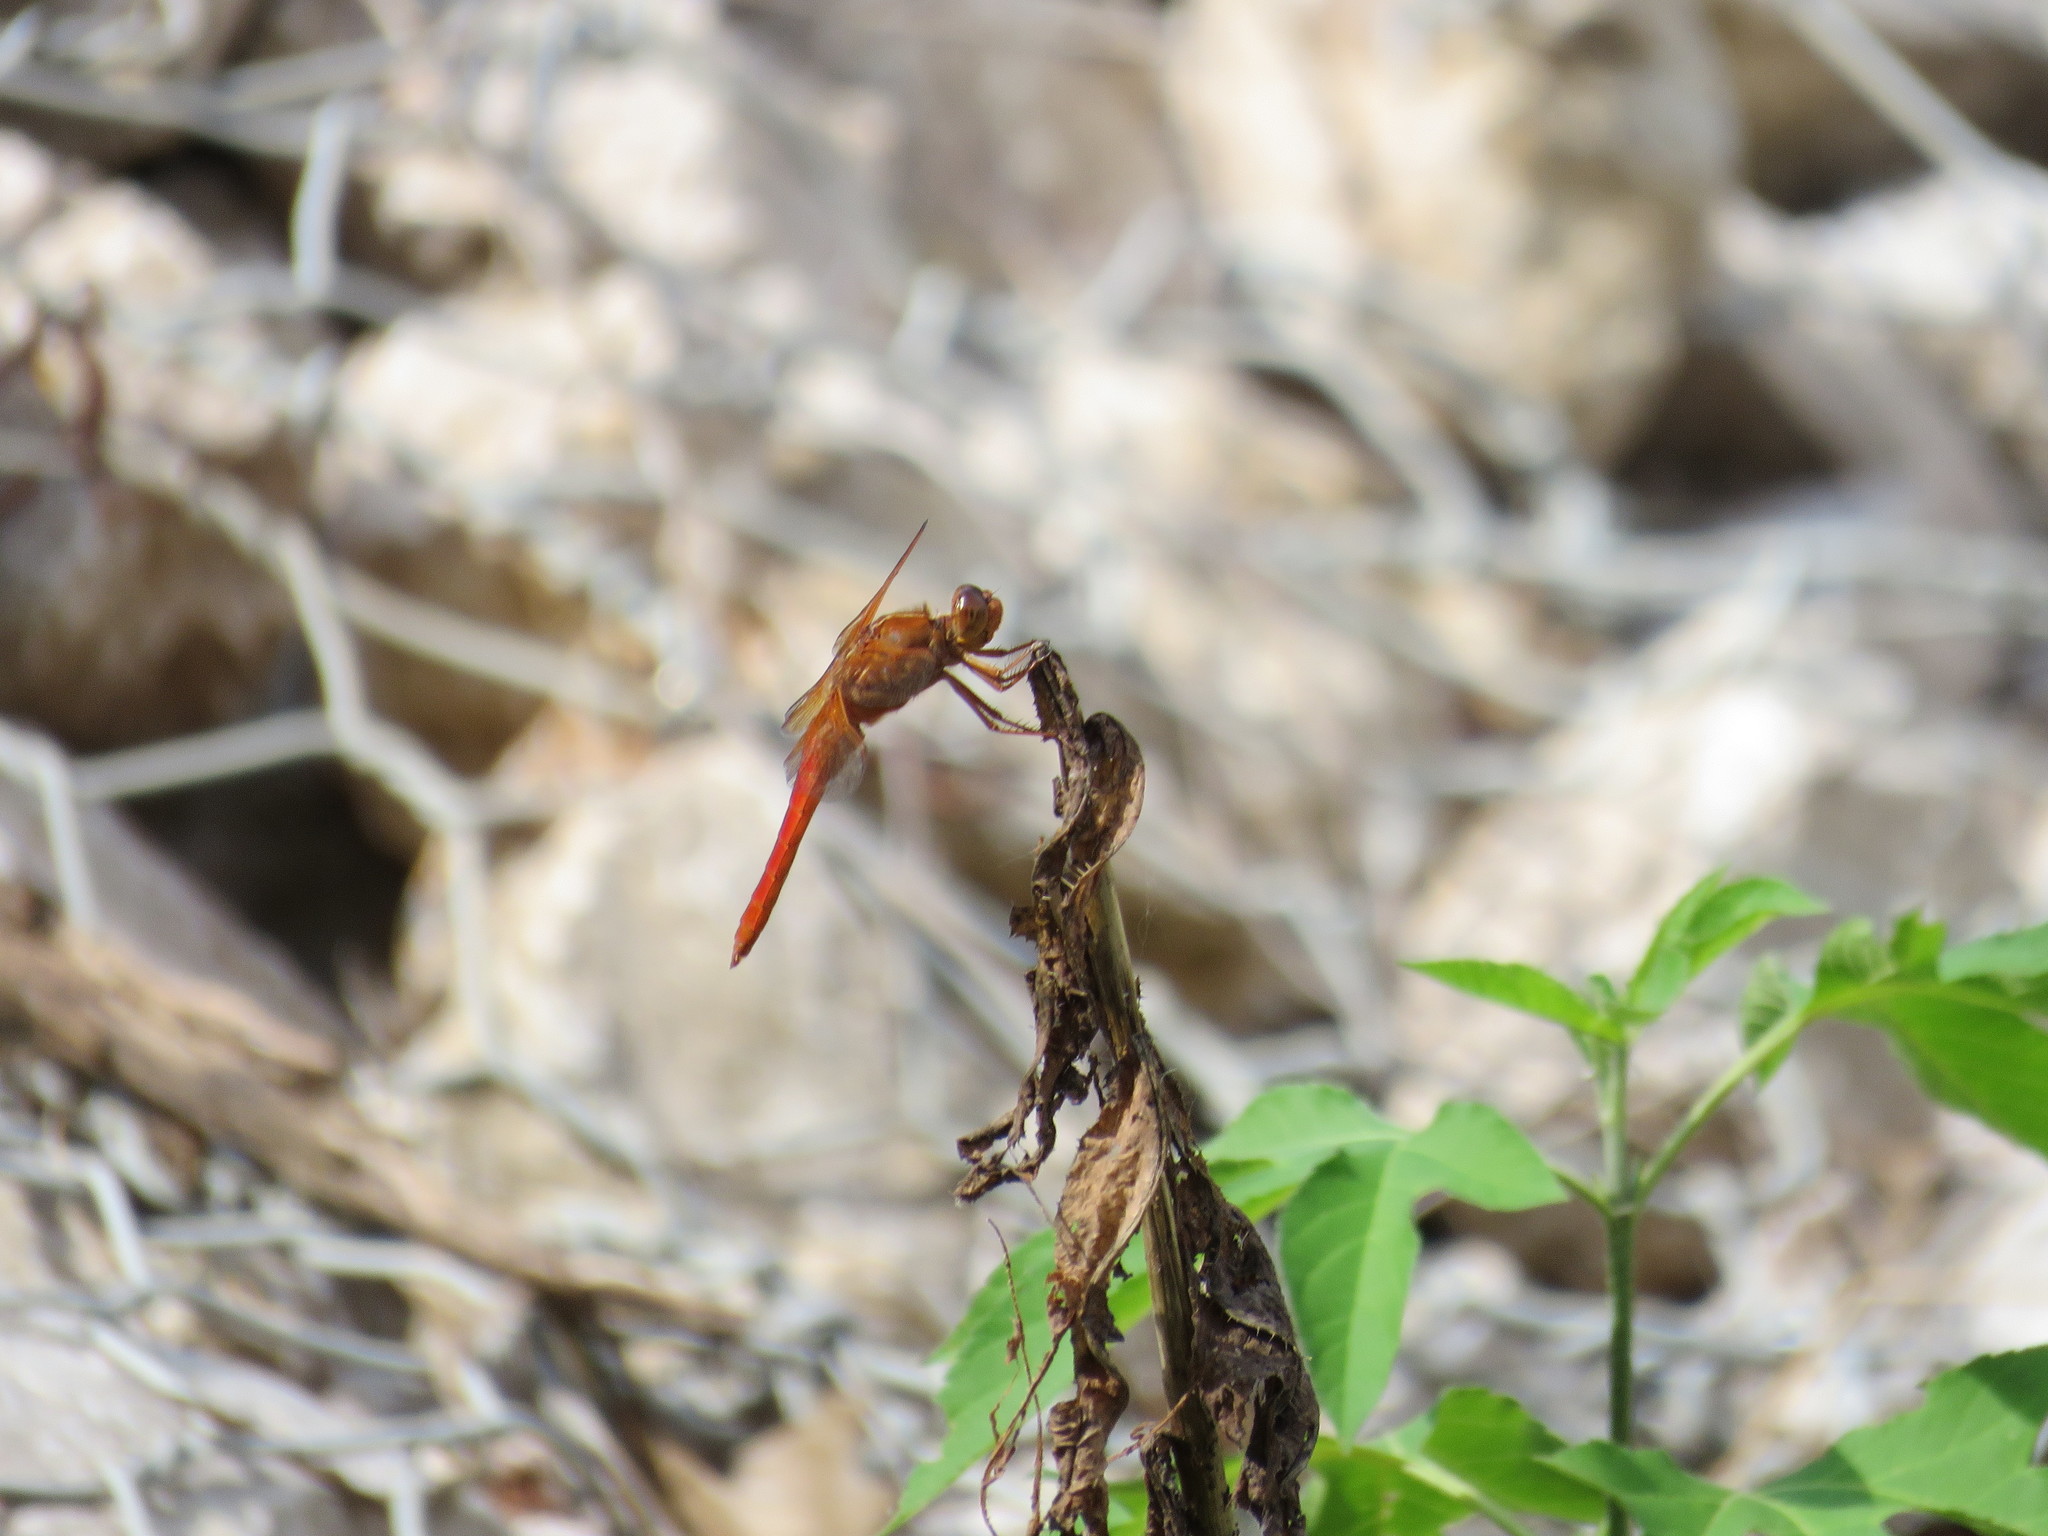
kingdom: Animalia
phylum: Arthropoda
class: Insecta
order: Odonata
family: Libellulidae
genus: Libellula
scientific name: Libellula croceipennis
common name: Neon skimmer
